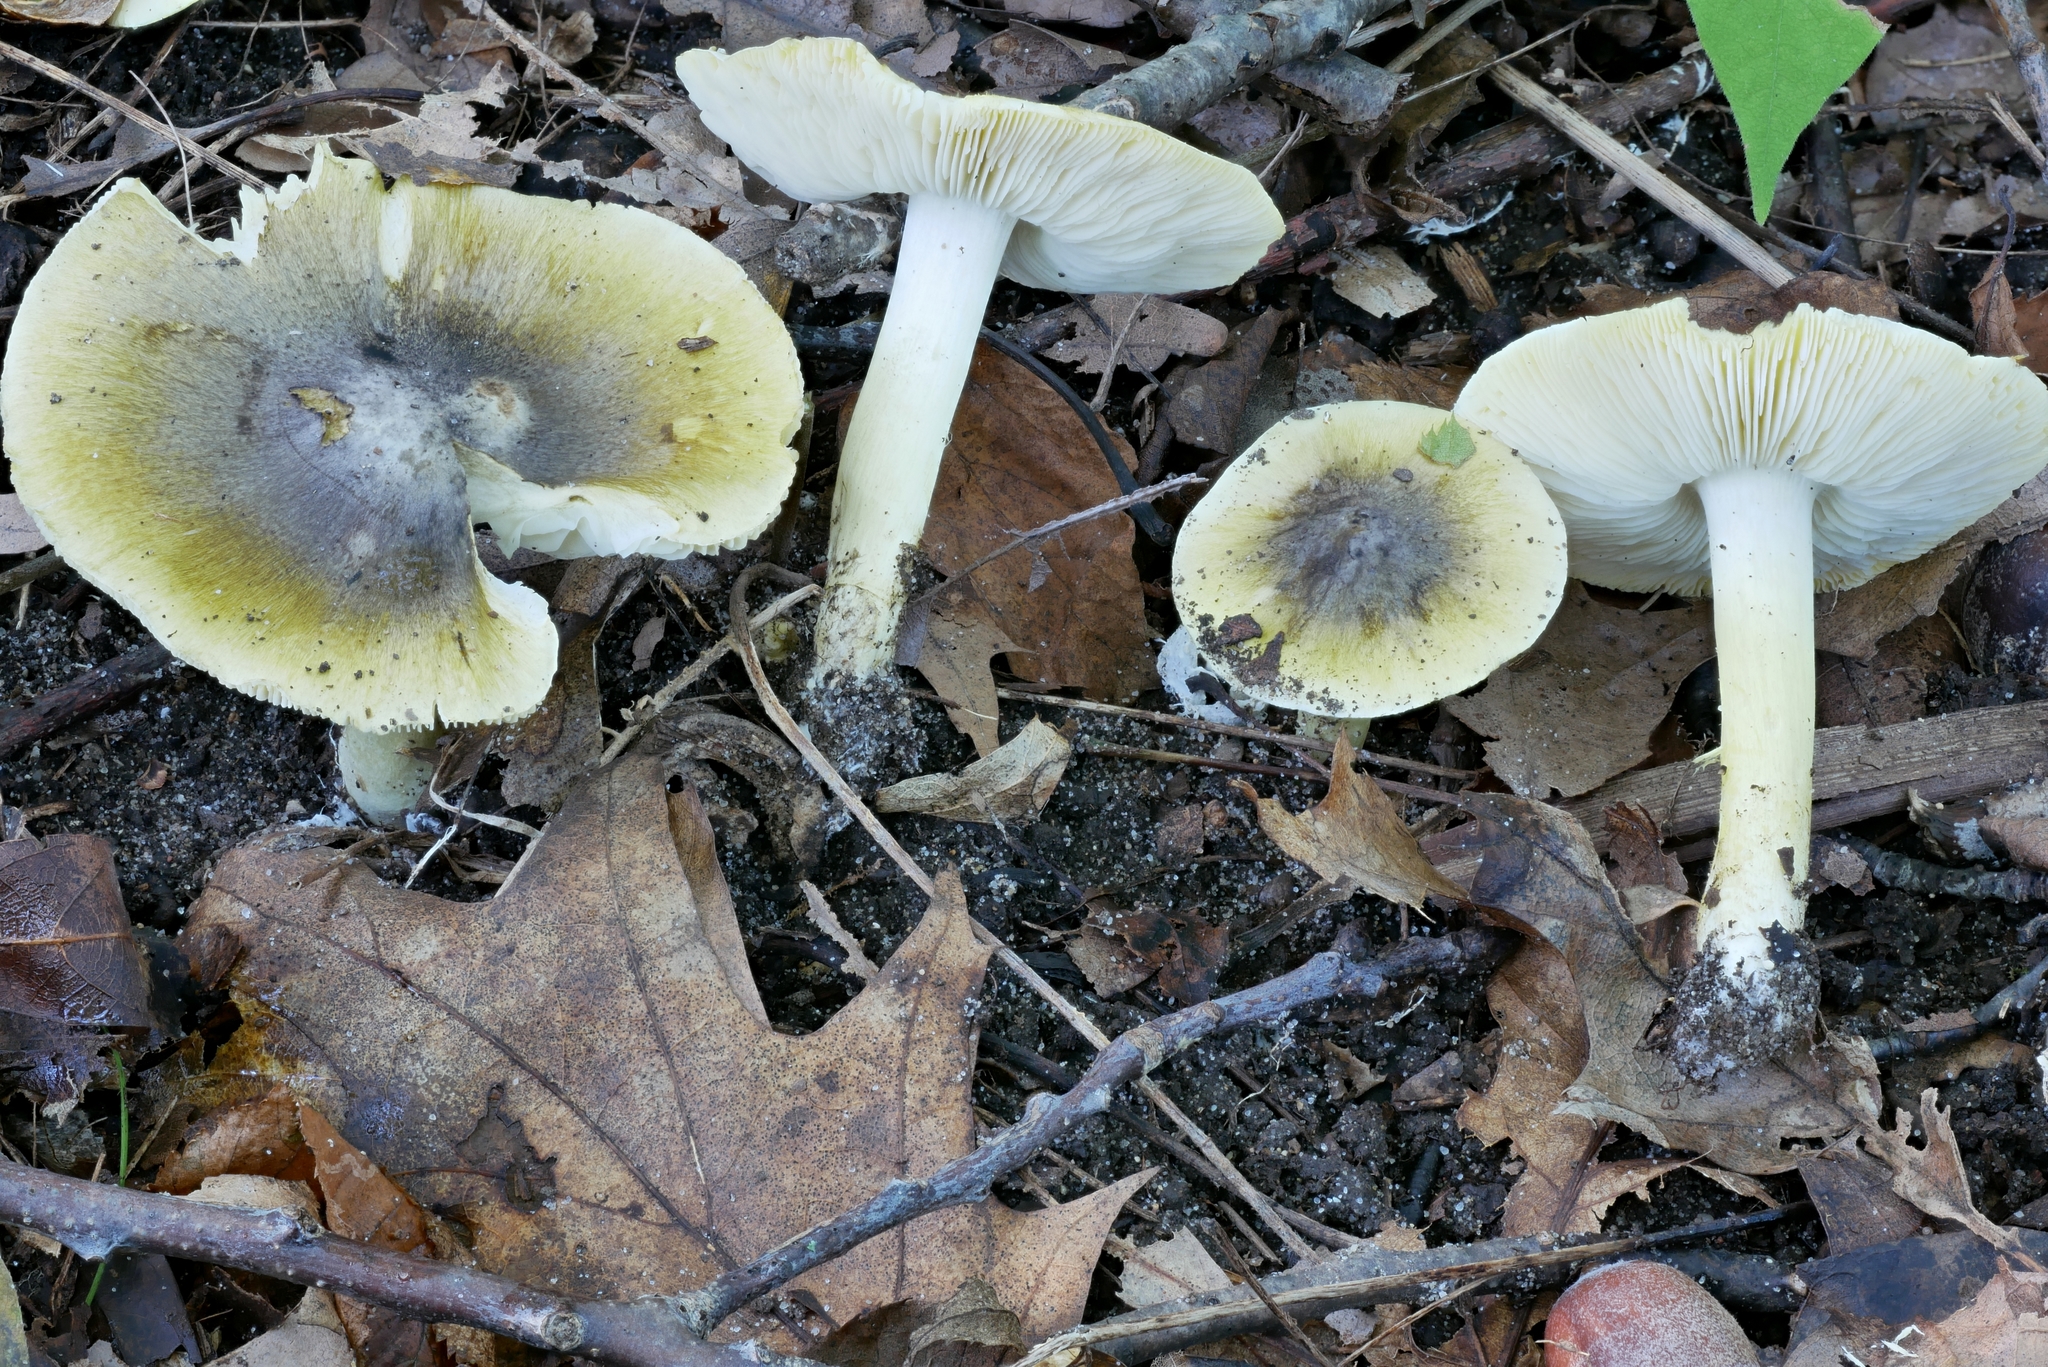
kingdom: Fungi
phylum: Basidiomycota
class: Agaricomycetes
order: Agaricales
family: Tricholomataceae
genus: Tricholoma
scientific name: Tricholoma subsejunctum
